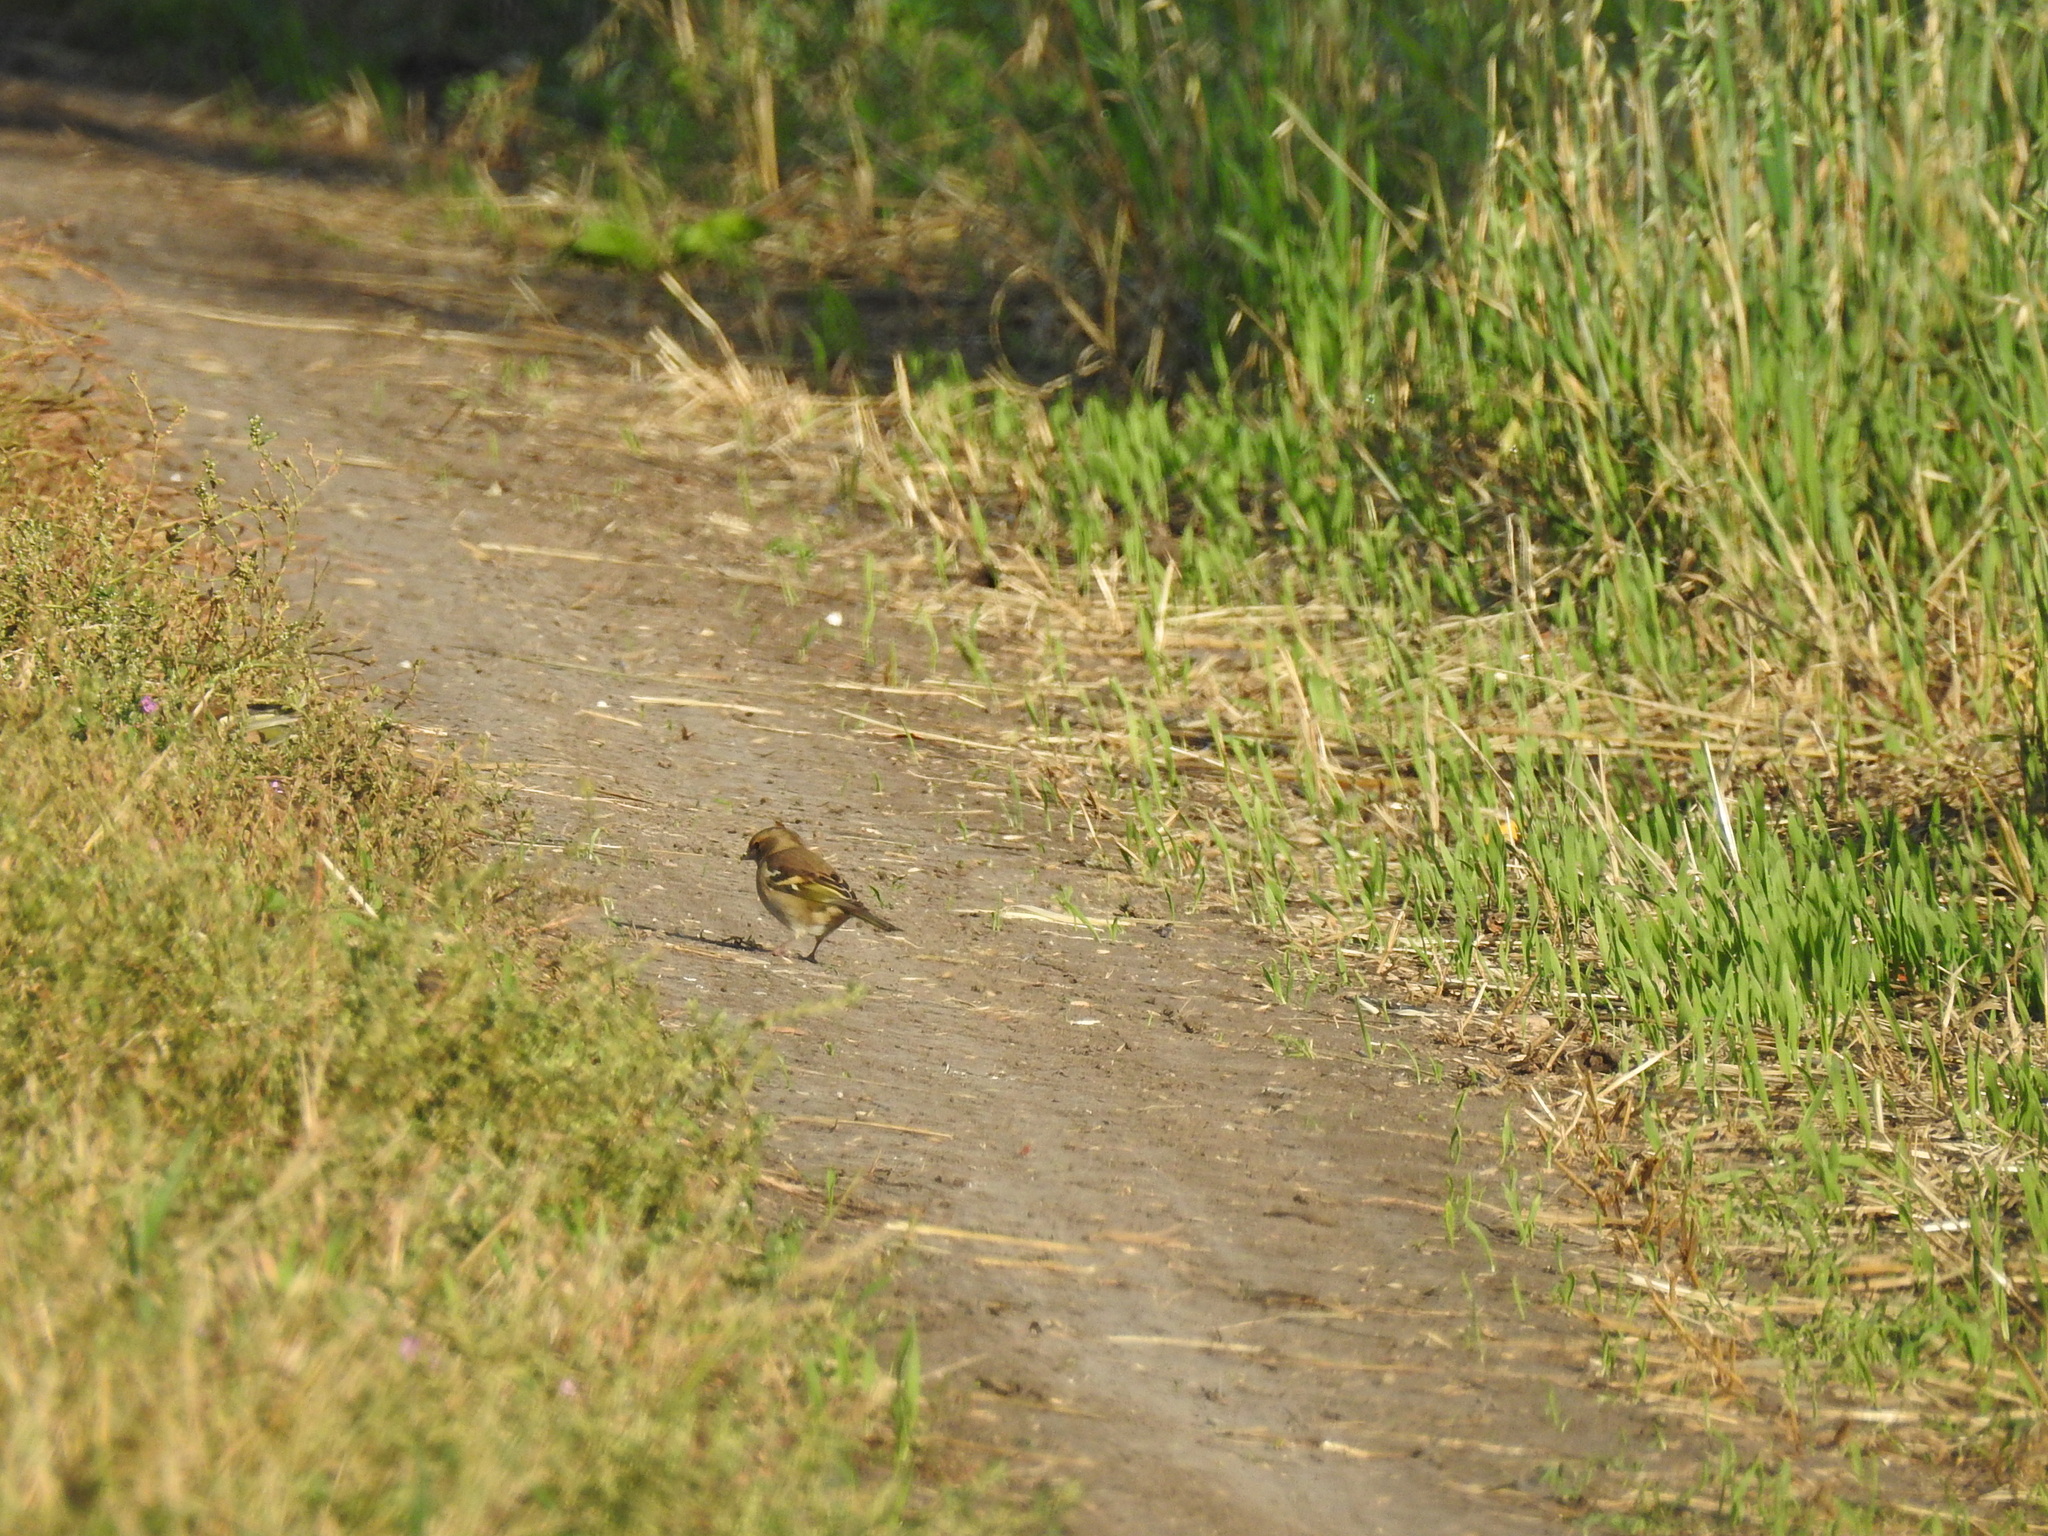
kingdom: Animalia
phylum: Chordata
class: Aves
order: Passeriformes
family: Fringillidae
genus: Fringilla
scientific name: Fringilla coelebs
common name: Common chaffinch
